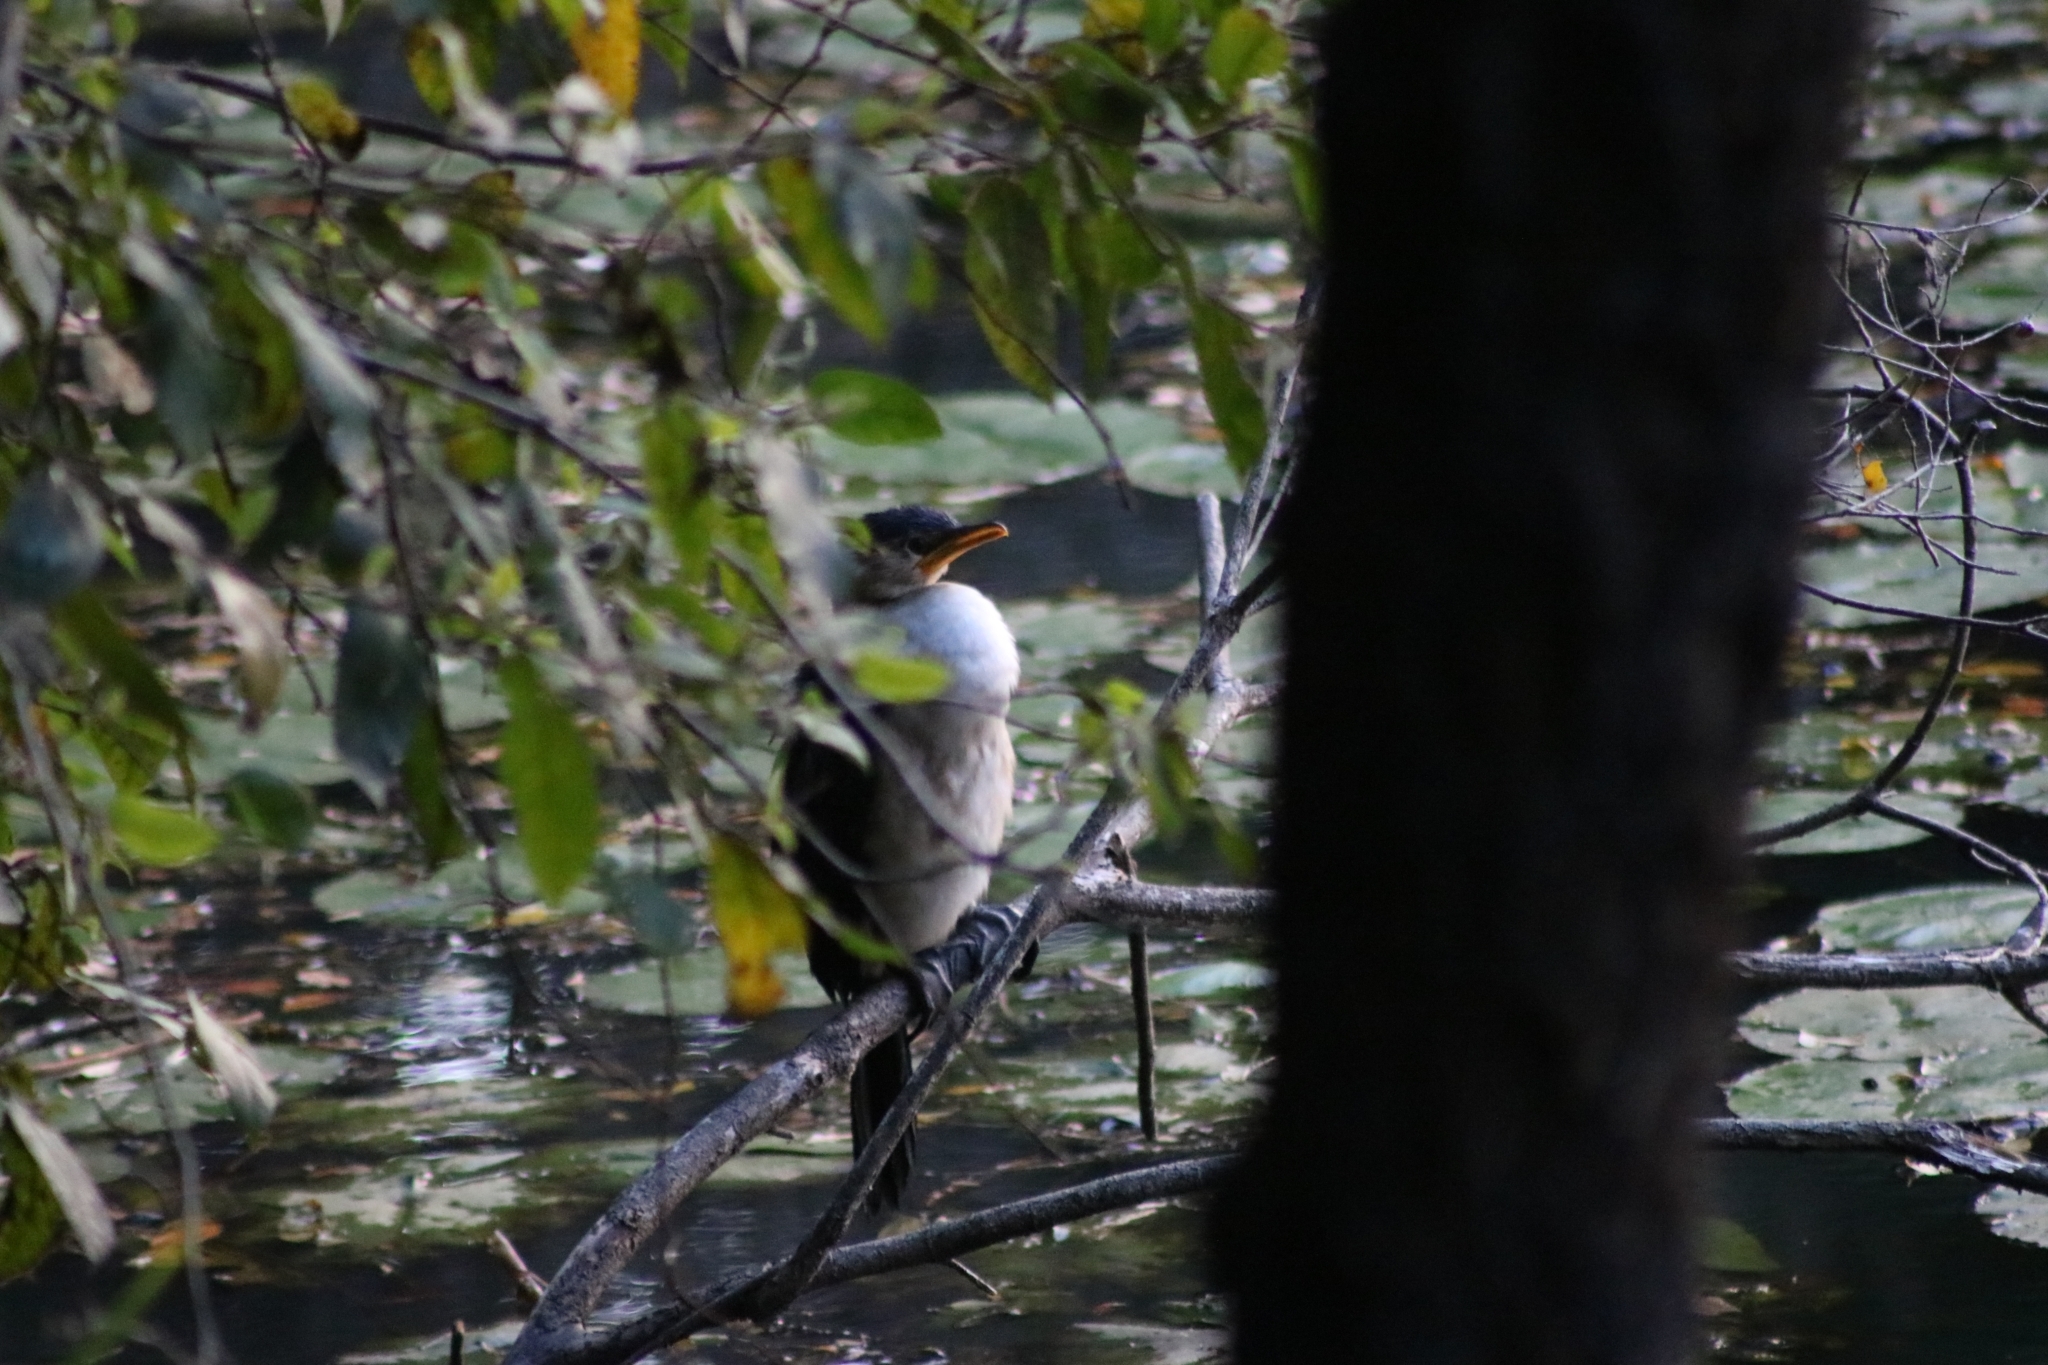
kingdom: Animalia
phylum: Chordata
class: Aves
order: Suliformes
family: Phalacrocoracidae
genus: Microcarbo
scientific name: Microcarbo melanoleucos
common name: Little pied cormorant
